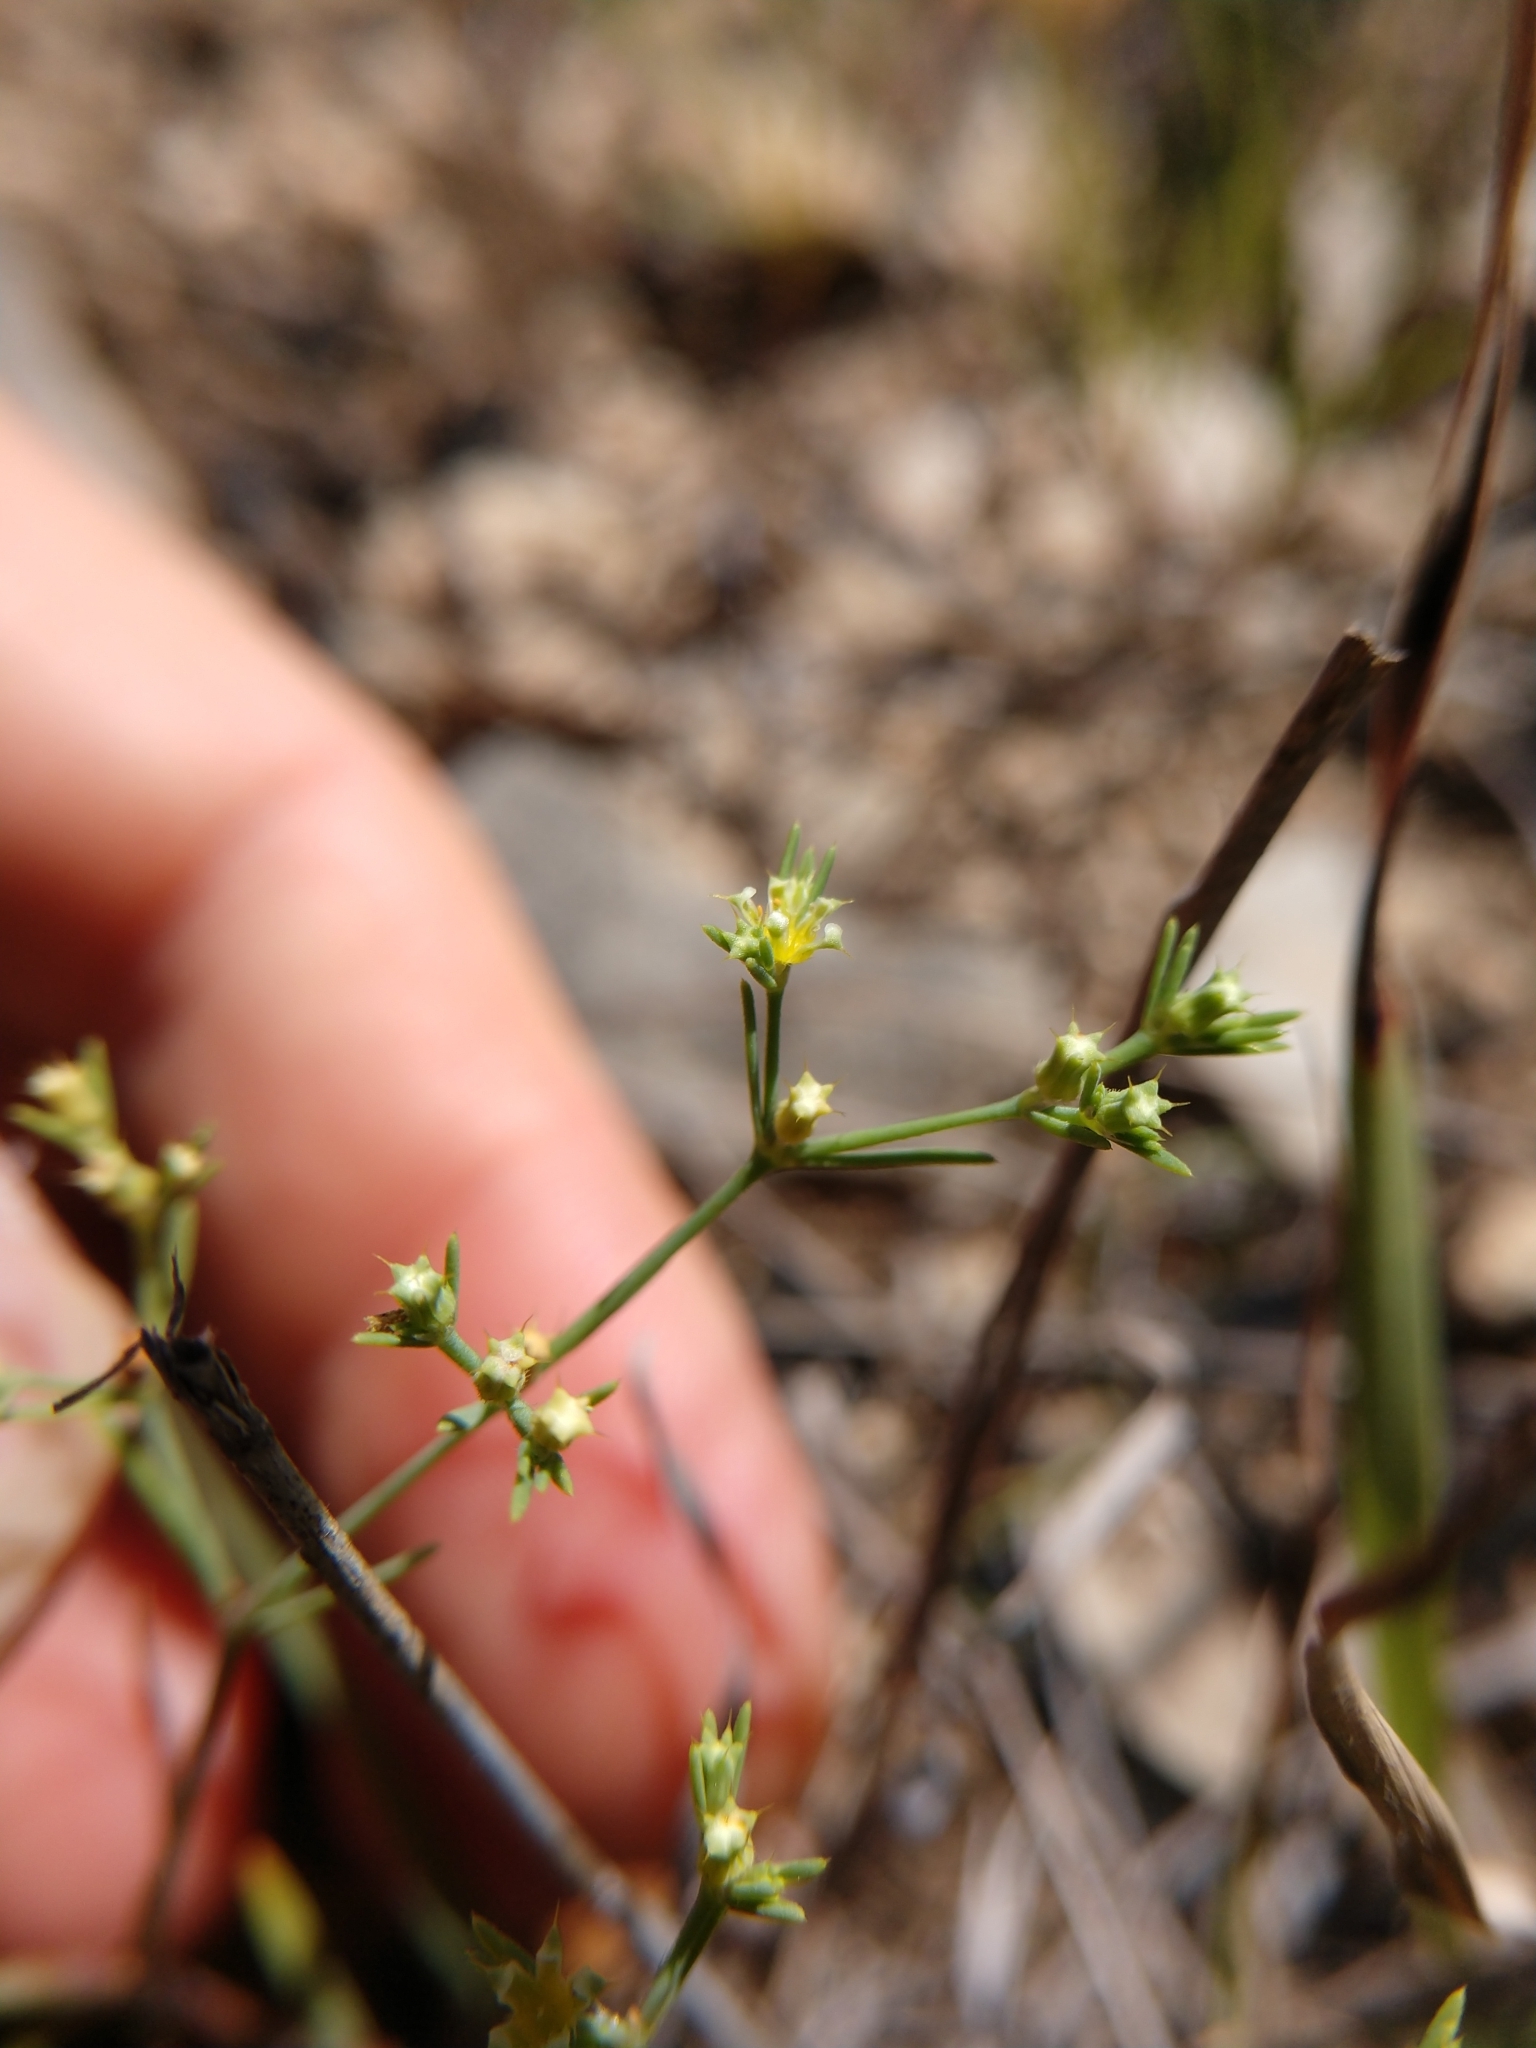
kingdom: Plantae
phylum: Tracheophyta
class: Magnoliopsida
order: Caryophyllales
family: Caryophyllaceae
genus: Paronychia
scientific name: Paronychia lindheimeri
